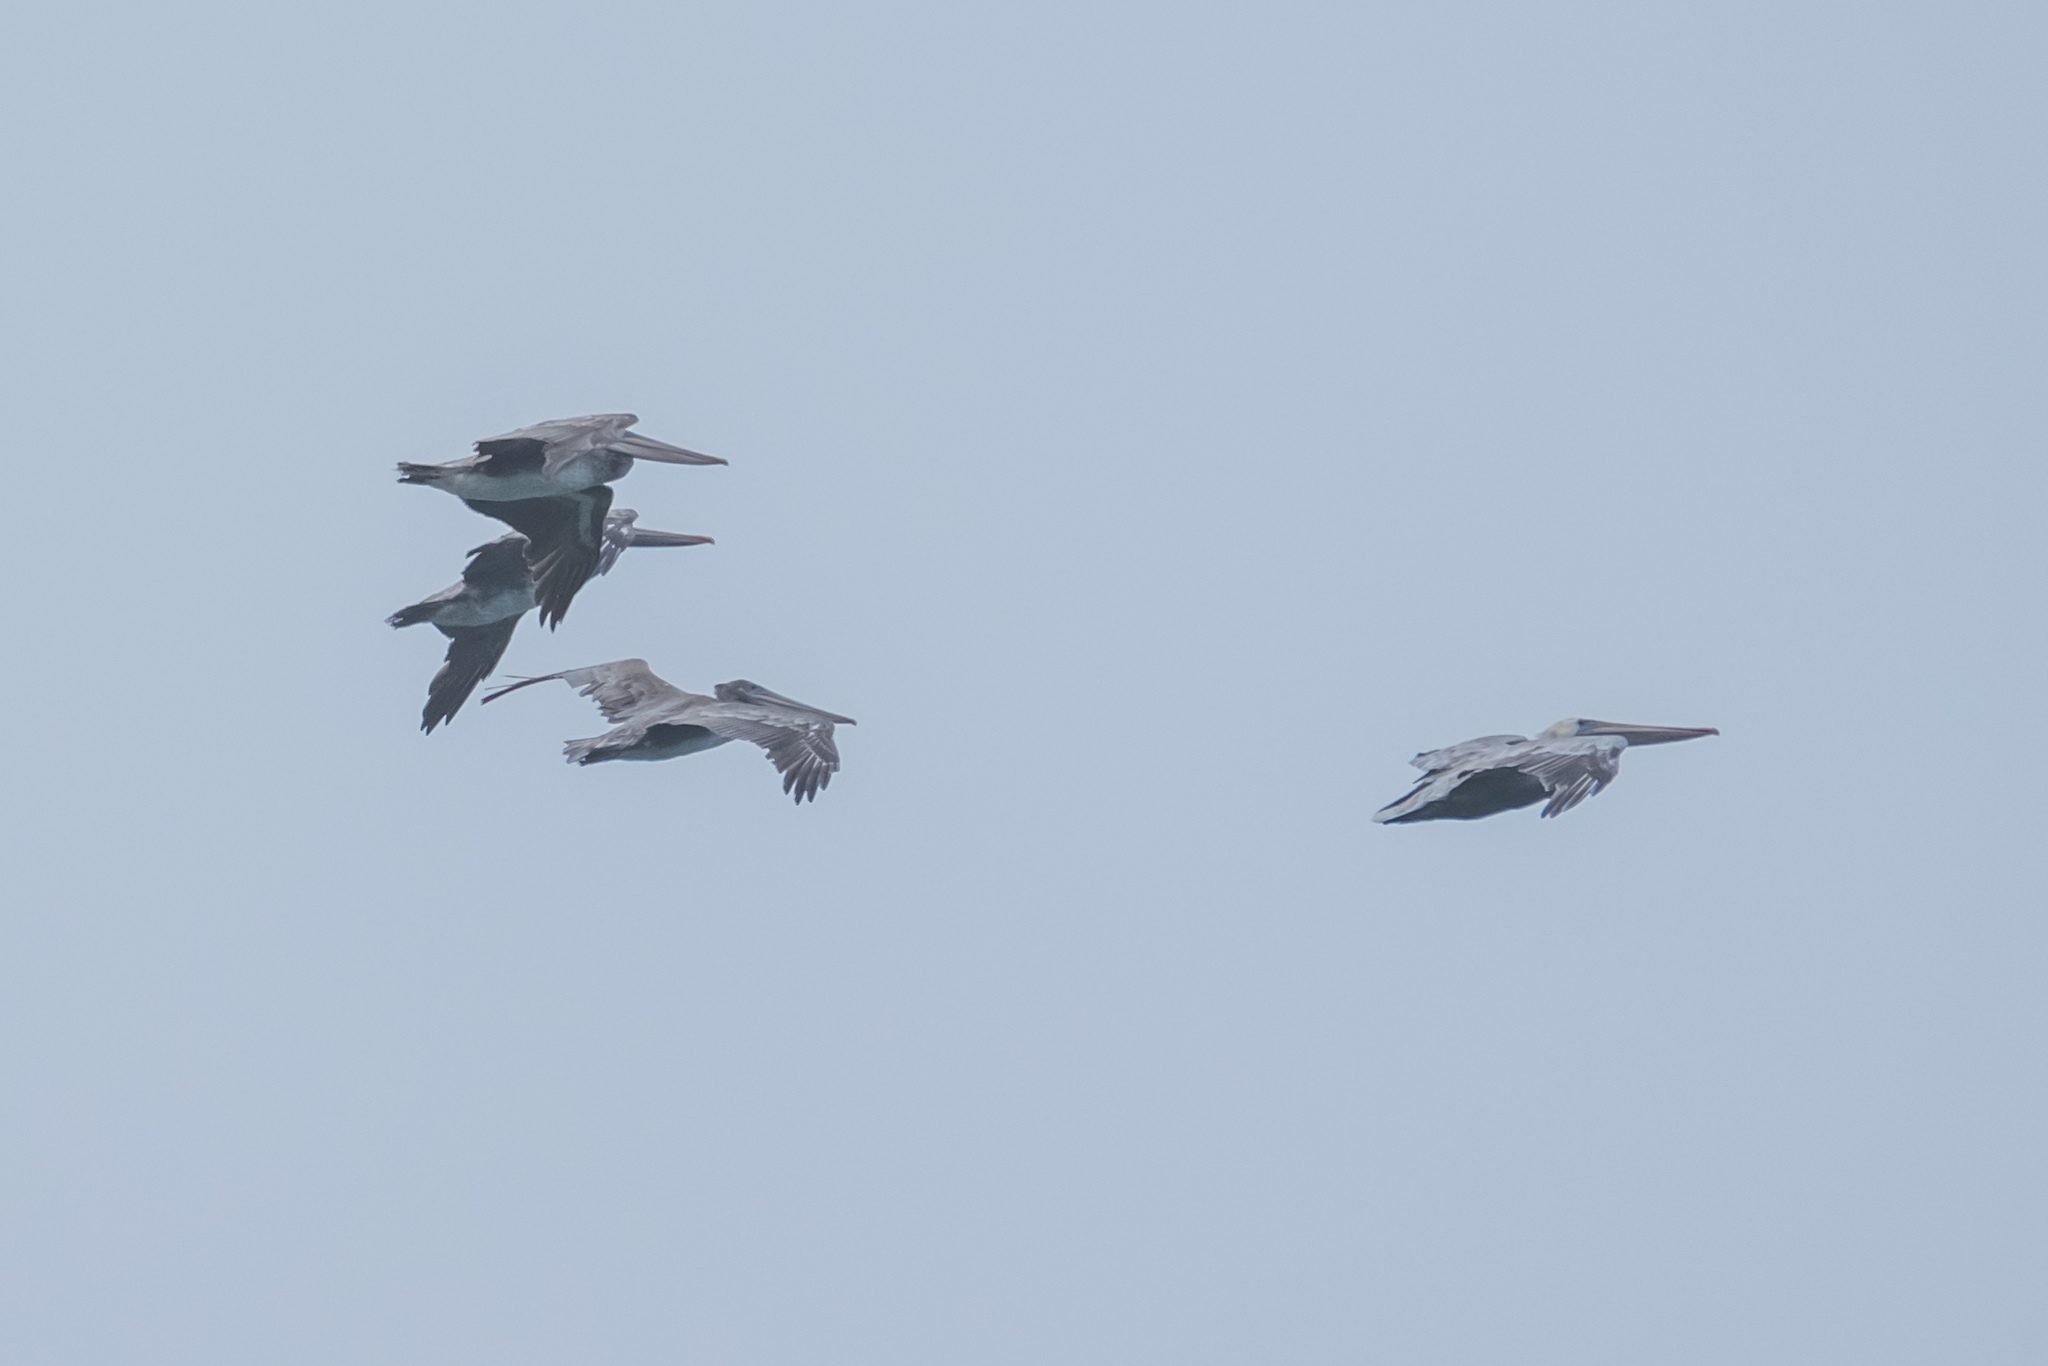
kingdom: Animalia
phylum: Chordata
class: Aves
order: Pelecaniformes
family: Pelecanidae
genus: Pelecanus
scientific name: Pelecanus occidentalis
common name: Brown pelican
